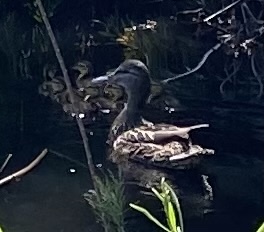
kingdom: Animalia
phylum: Chordata
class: Aves
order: Anseriformes
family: Anatidae
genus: Anas
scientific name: Anas platyrhynchos
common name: Mallard
